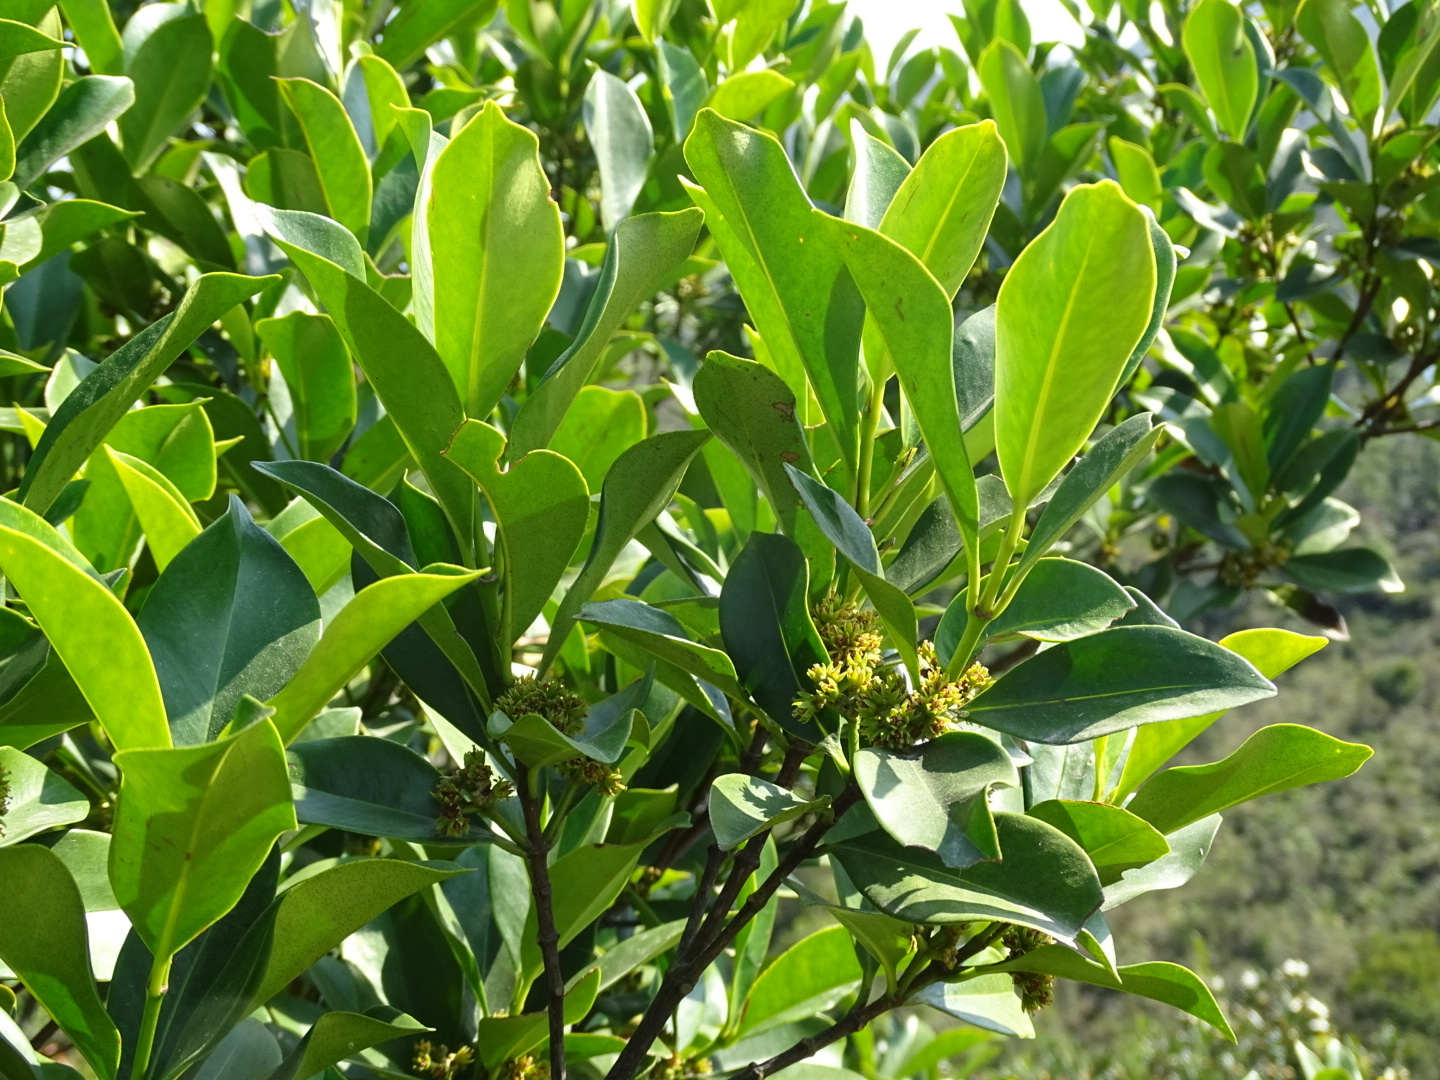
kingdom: Plantae
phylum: Tracheophyta
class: Magnoliopsida
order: Malpighiales
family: Rhizophoraceae
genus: Carallia
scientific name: Carallia brachiata
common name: Carallawood
